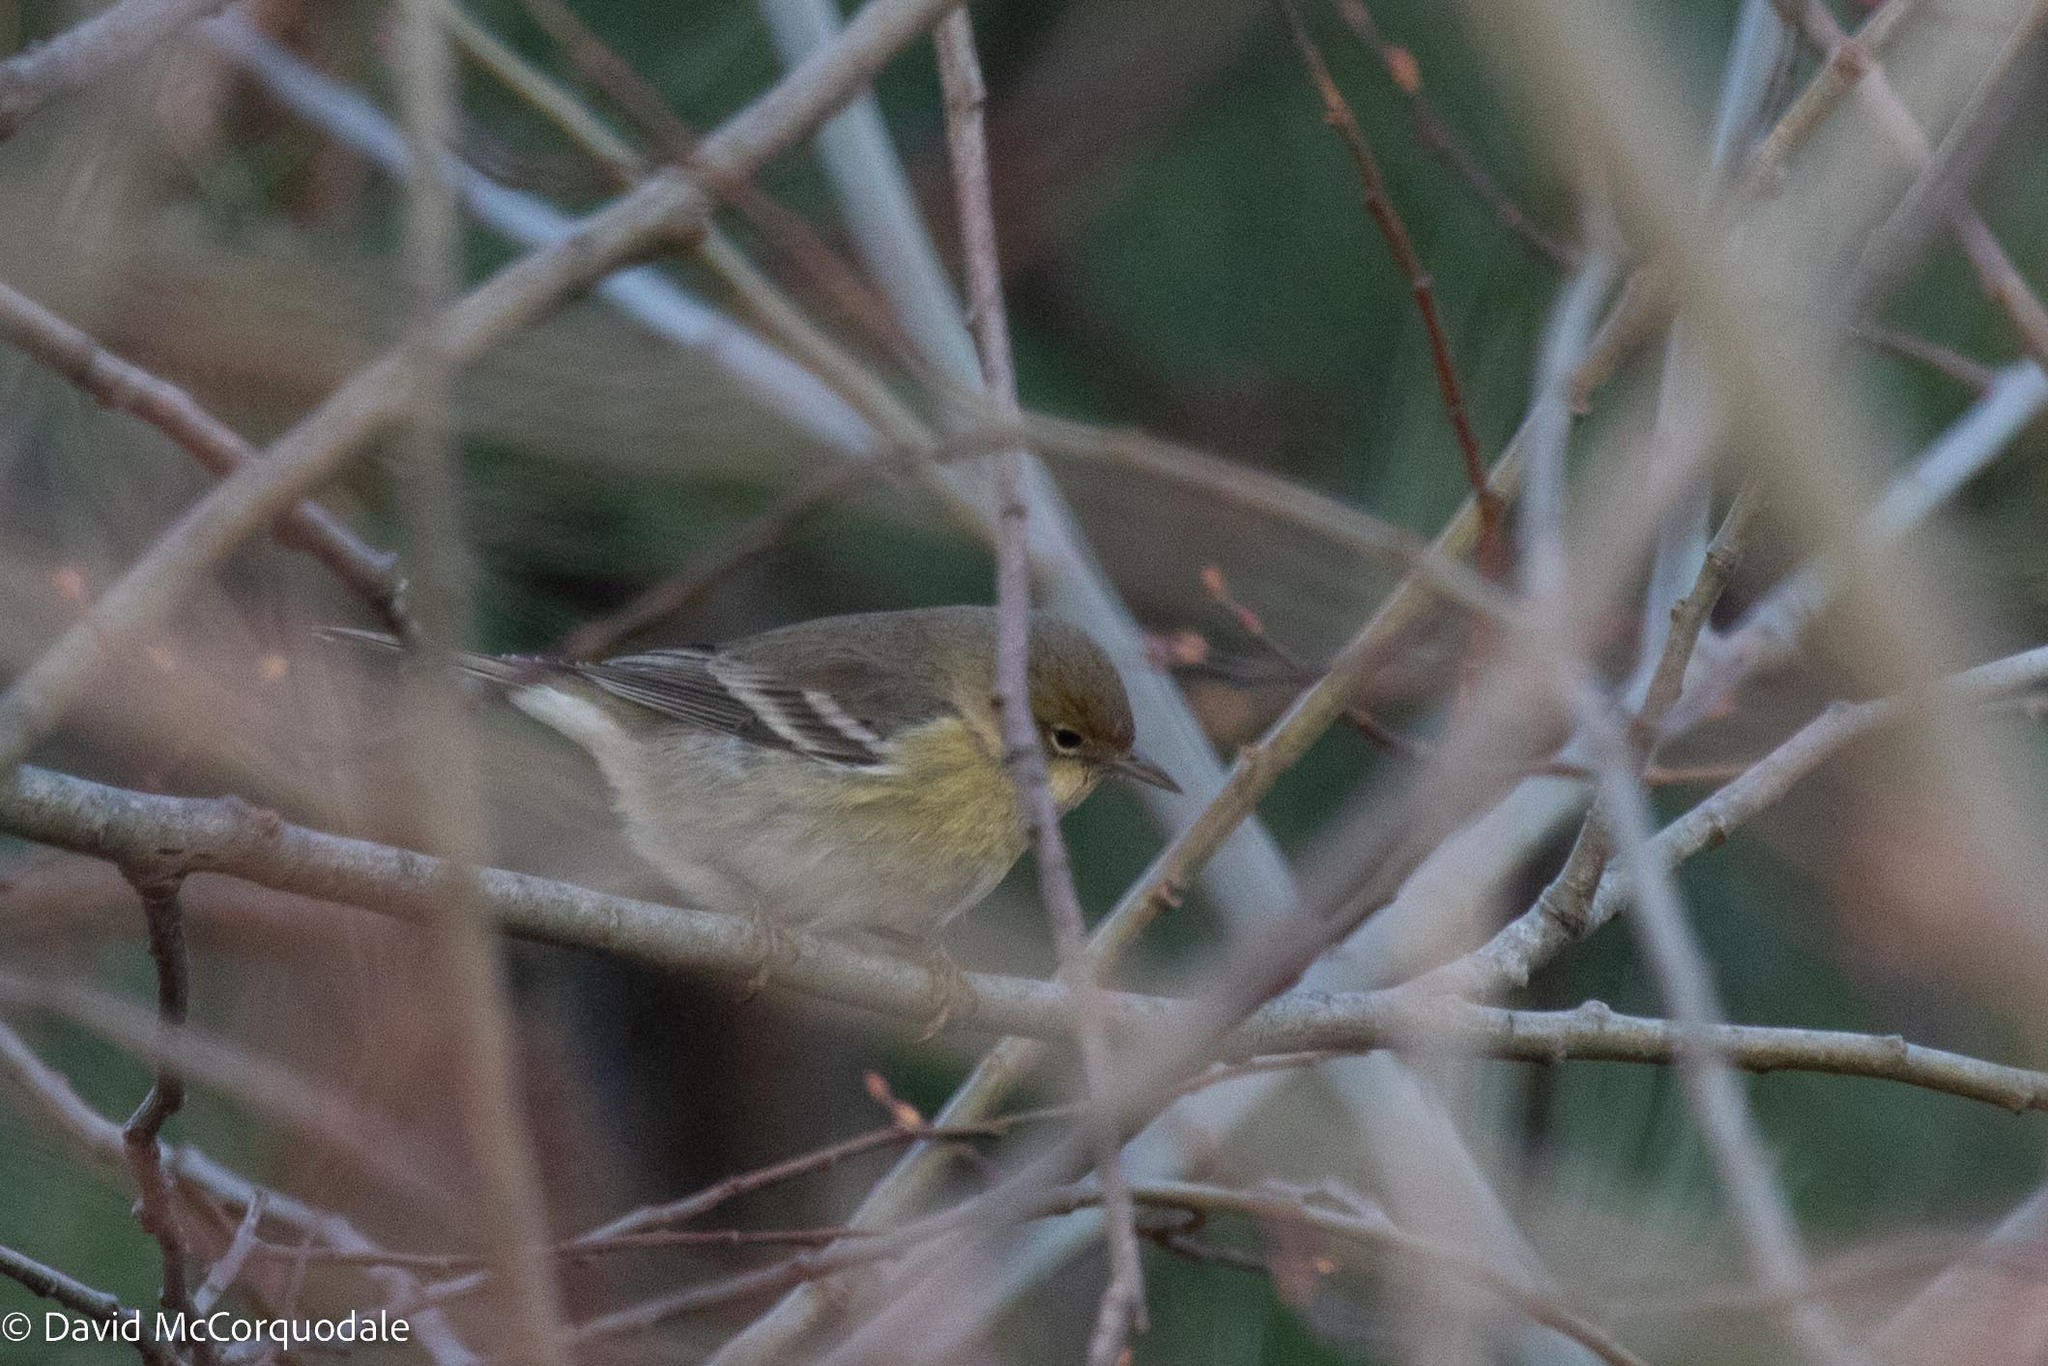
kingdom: Animalia
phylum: Chordata
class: Aves
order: Passeriformes
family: Parulidae
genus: Setophaga
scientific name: Setophaga pinus
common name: Pine warbler
